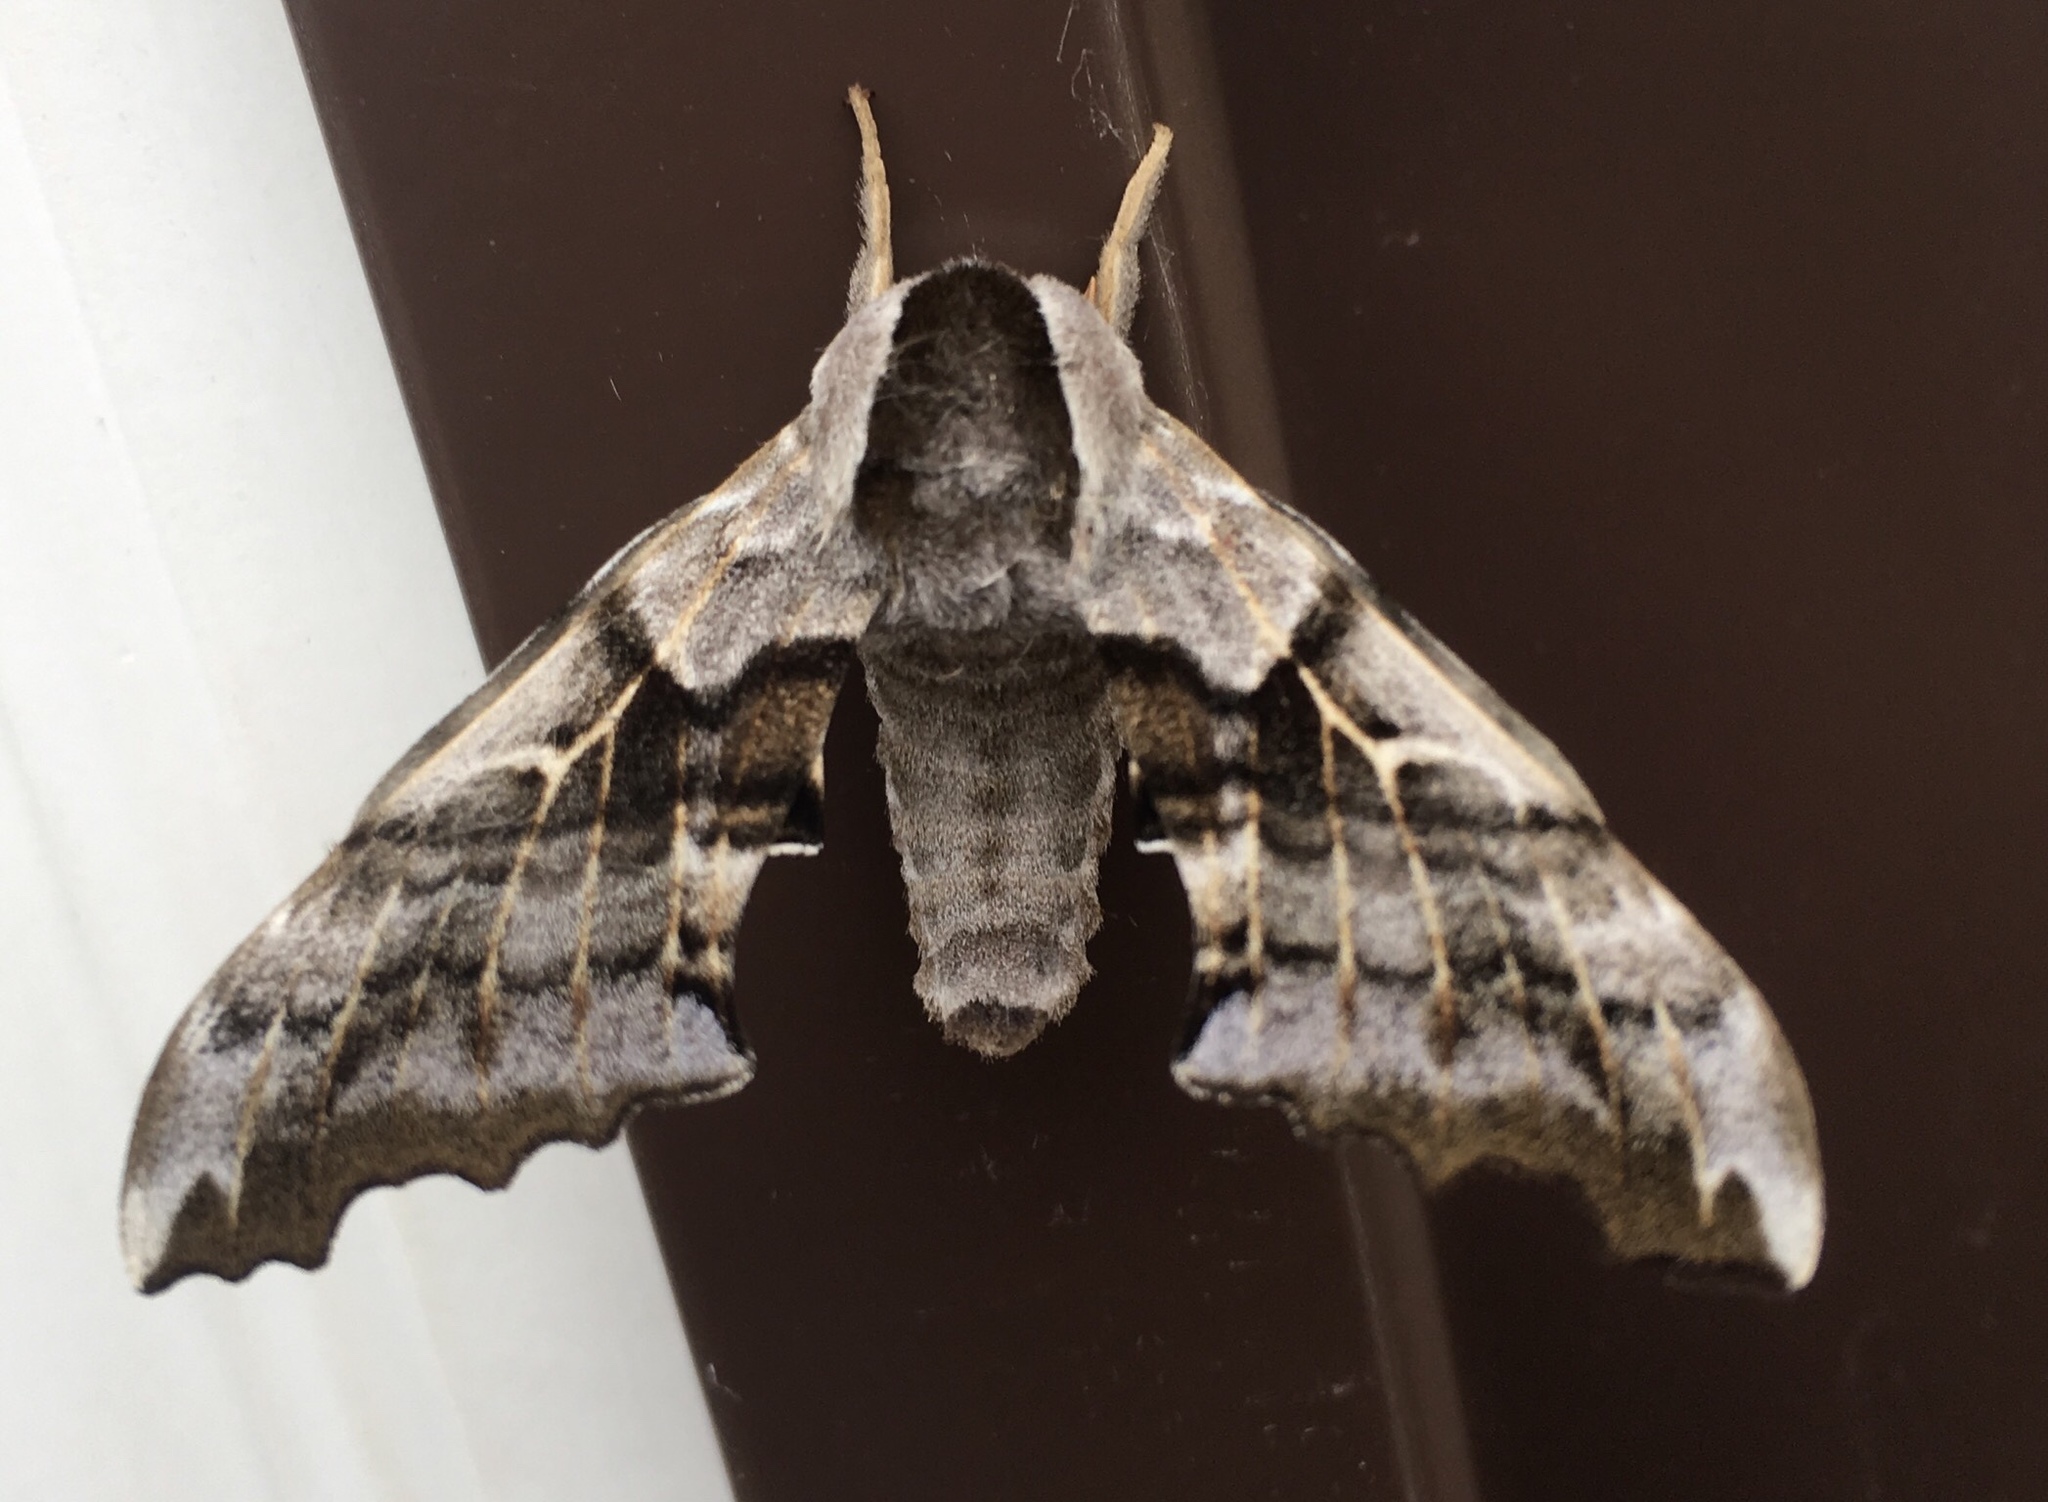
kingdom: Animalia
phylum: Arthropoda
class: Insecta
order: Lepidoptera
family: Sphingidae
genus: Smerinthus
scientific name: Smerinthus cerisyi
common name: Cerisy's sphinx moth
